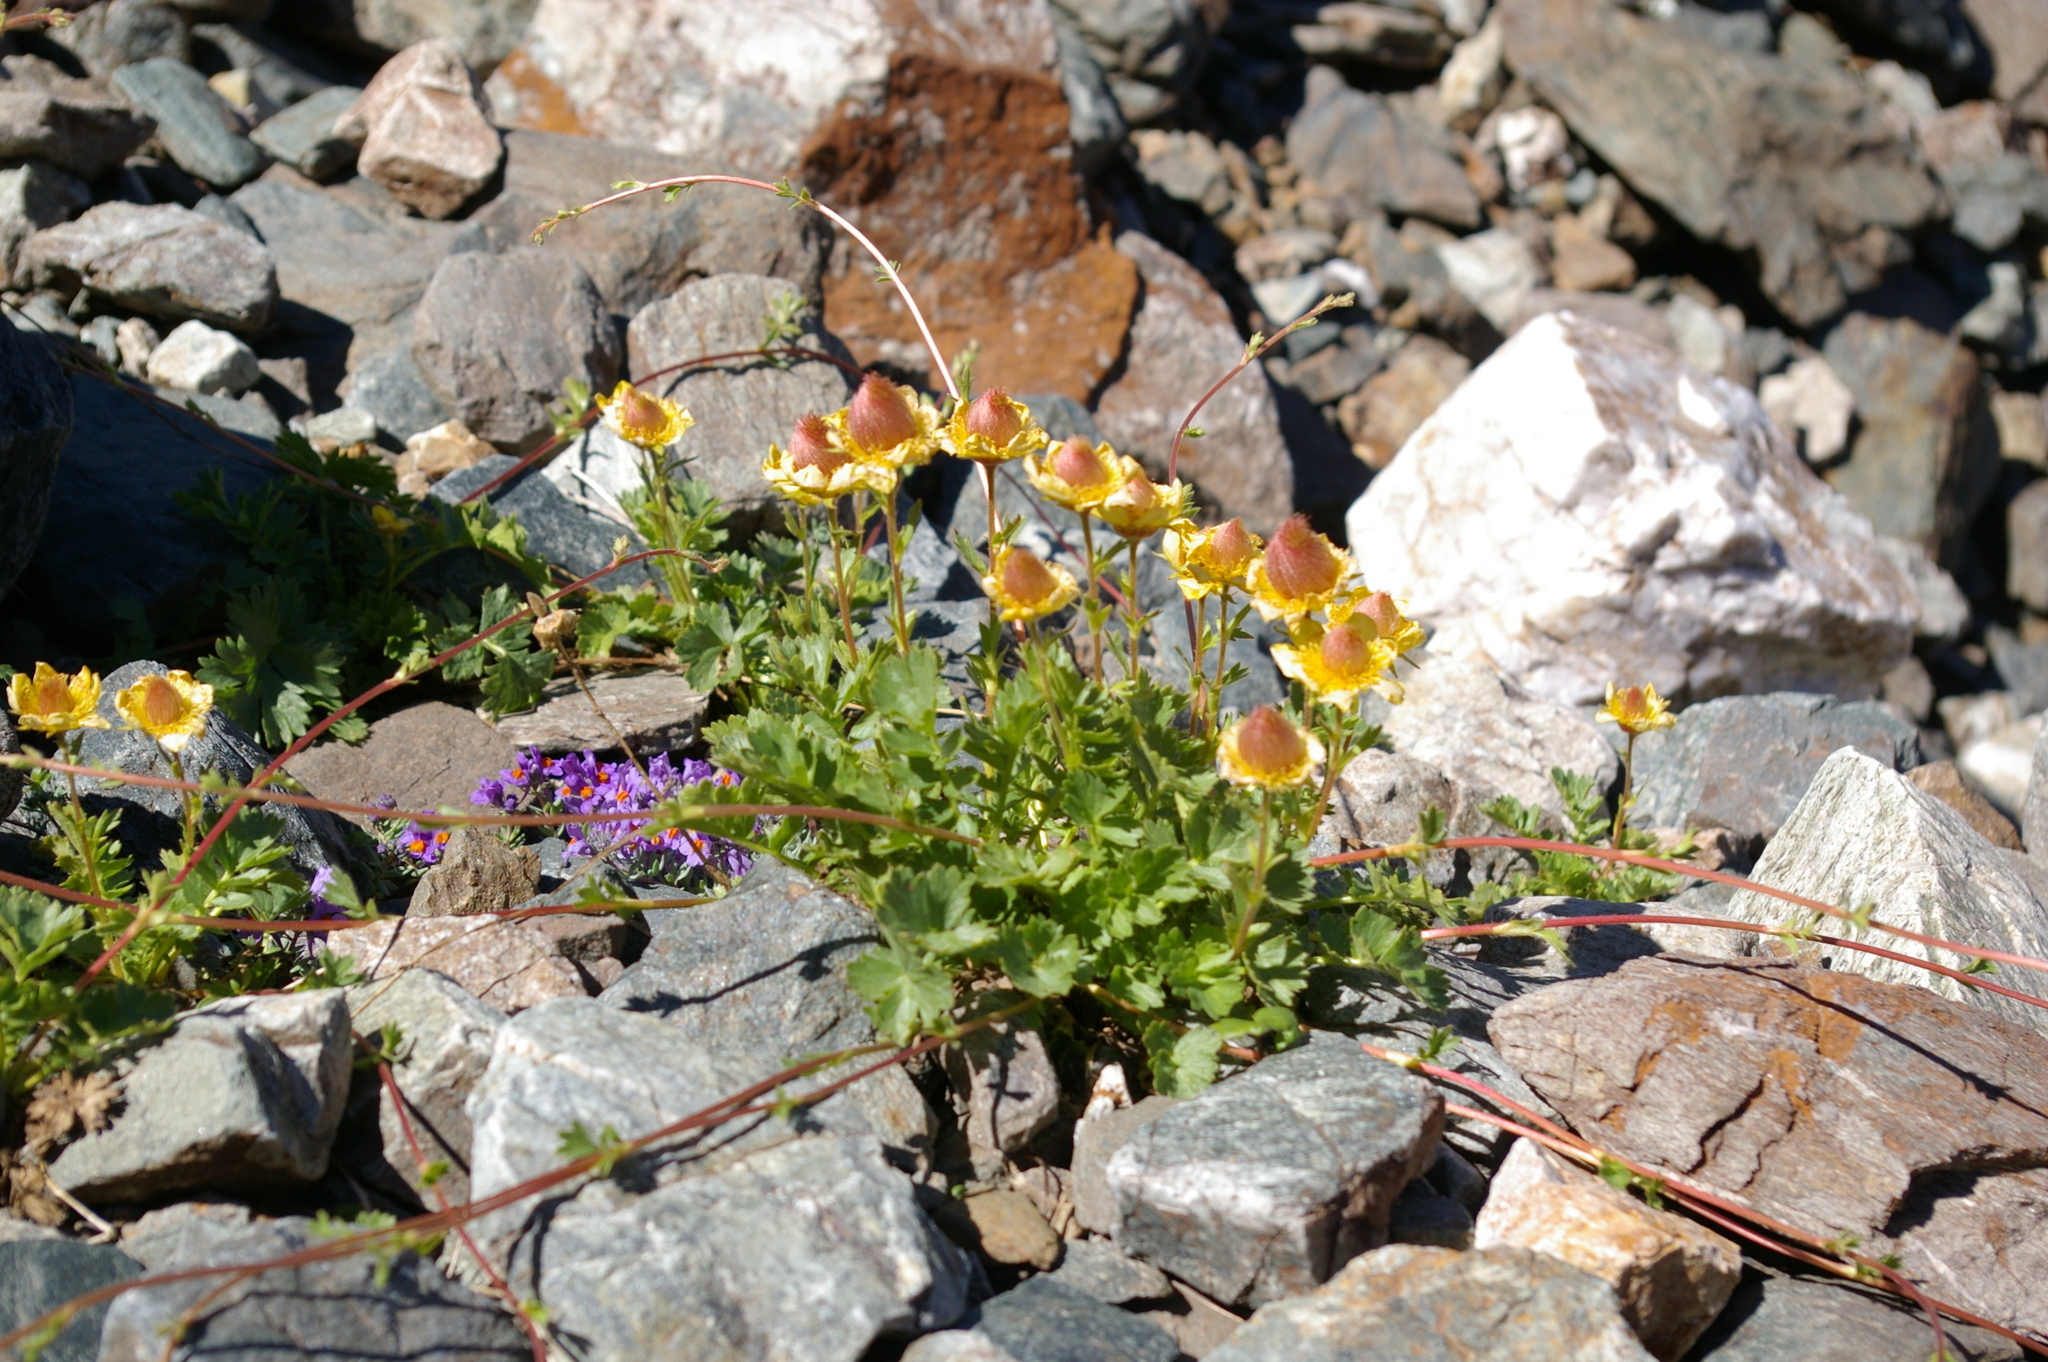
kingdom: Plantae
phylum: Tracheophyta
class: Magnoliopsida
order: Rosales
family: Rosaceae
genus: Geum
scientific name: Geum reptans
